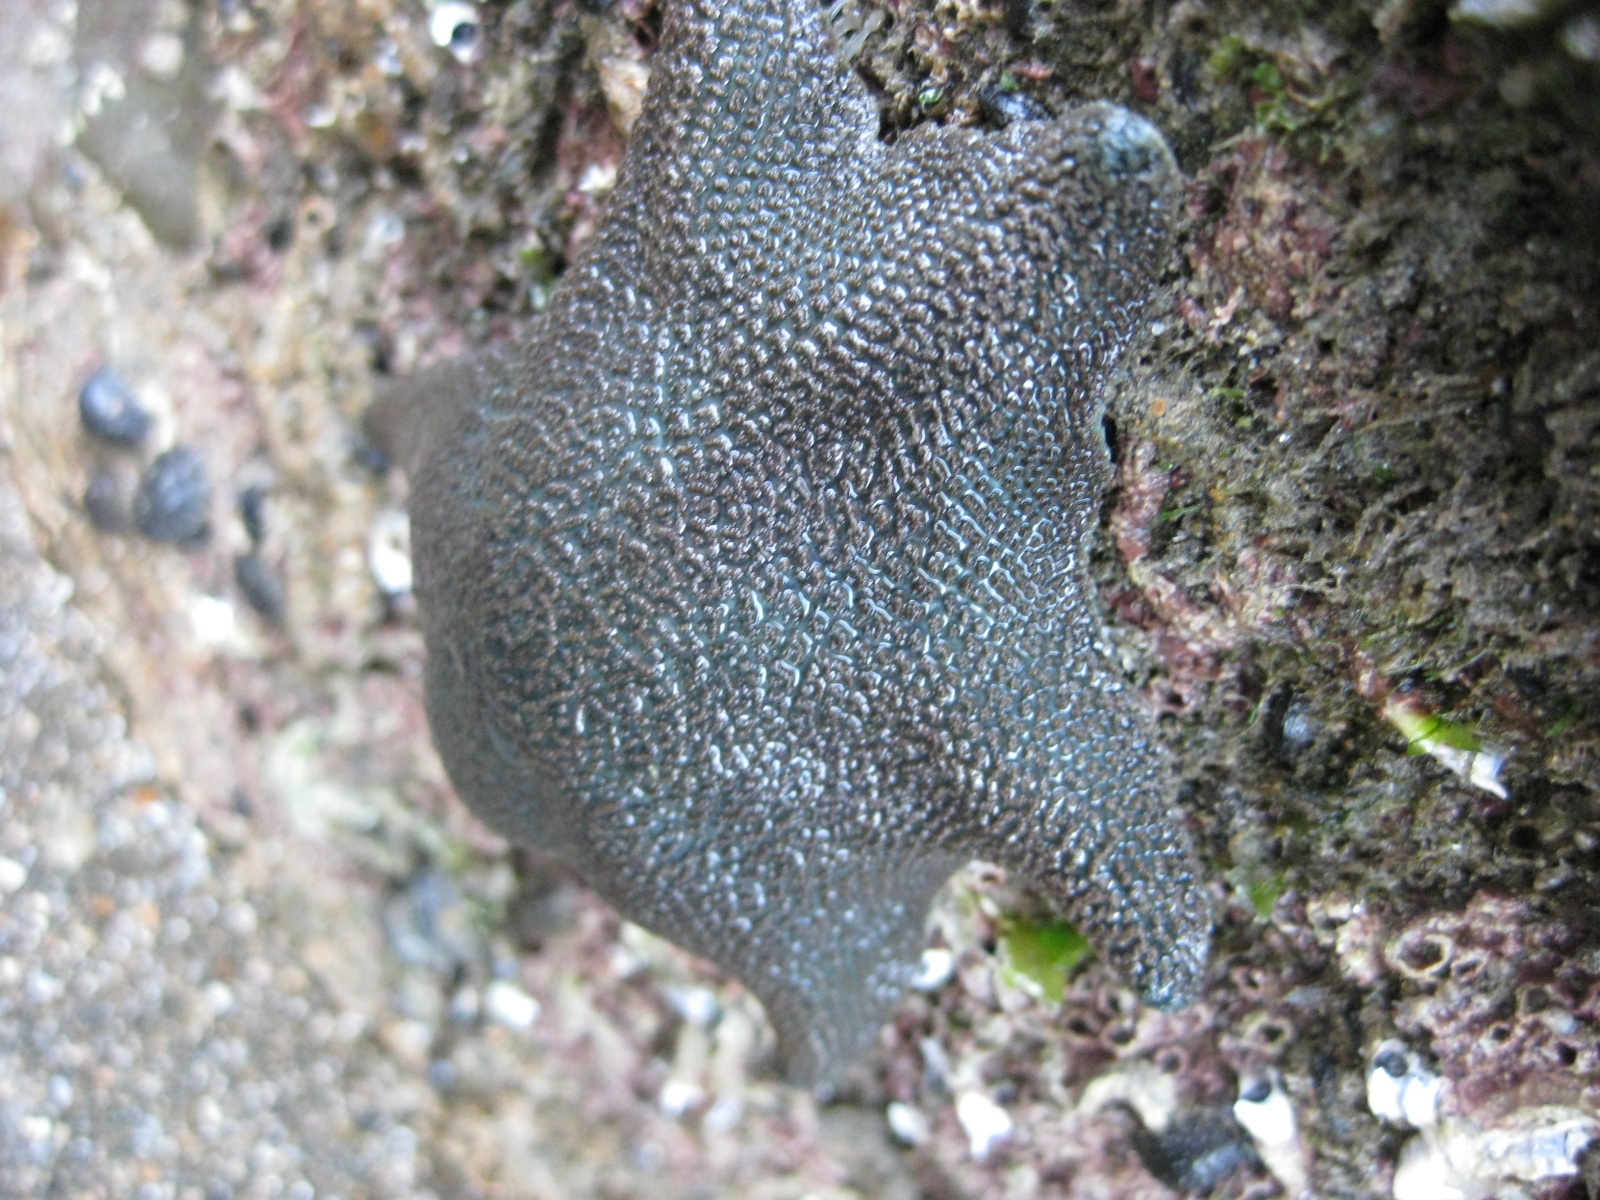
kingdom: Animalia
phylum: Echinodermata
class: Asteroidea
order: Valvatida
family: Asterinidae
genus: Patiriella
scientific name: Patiriella regularis
